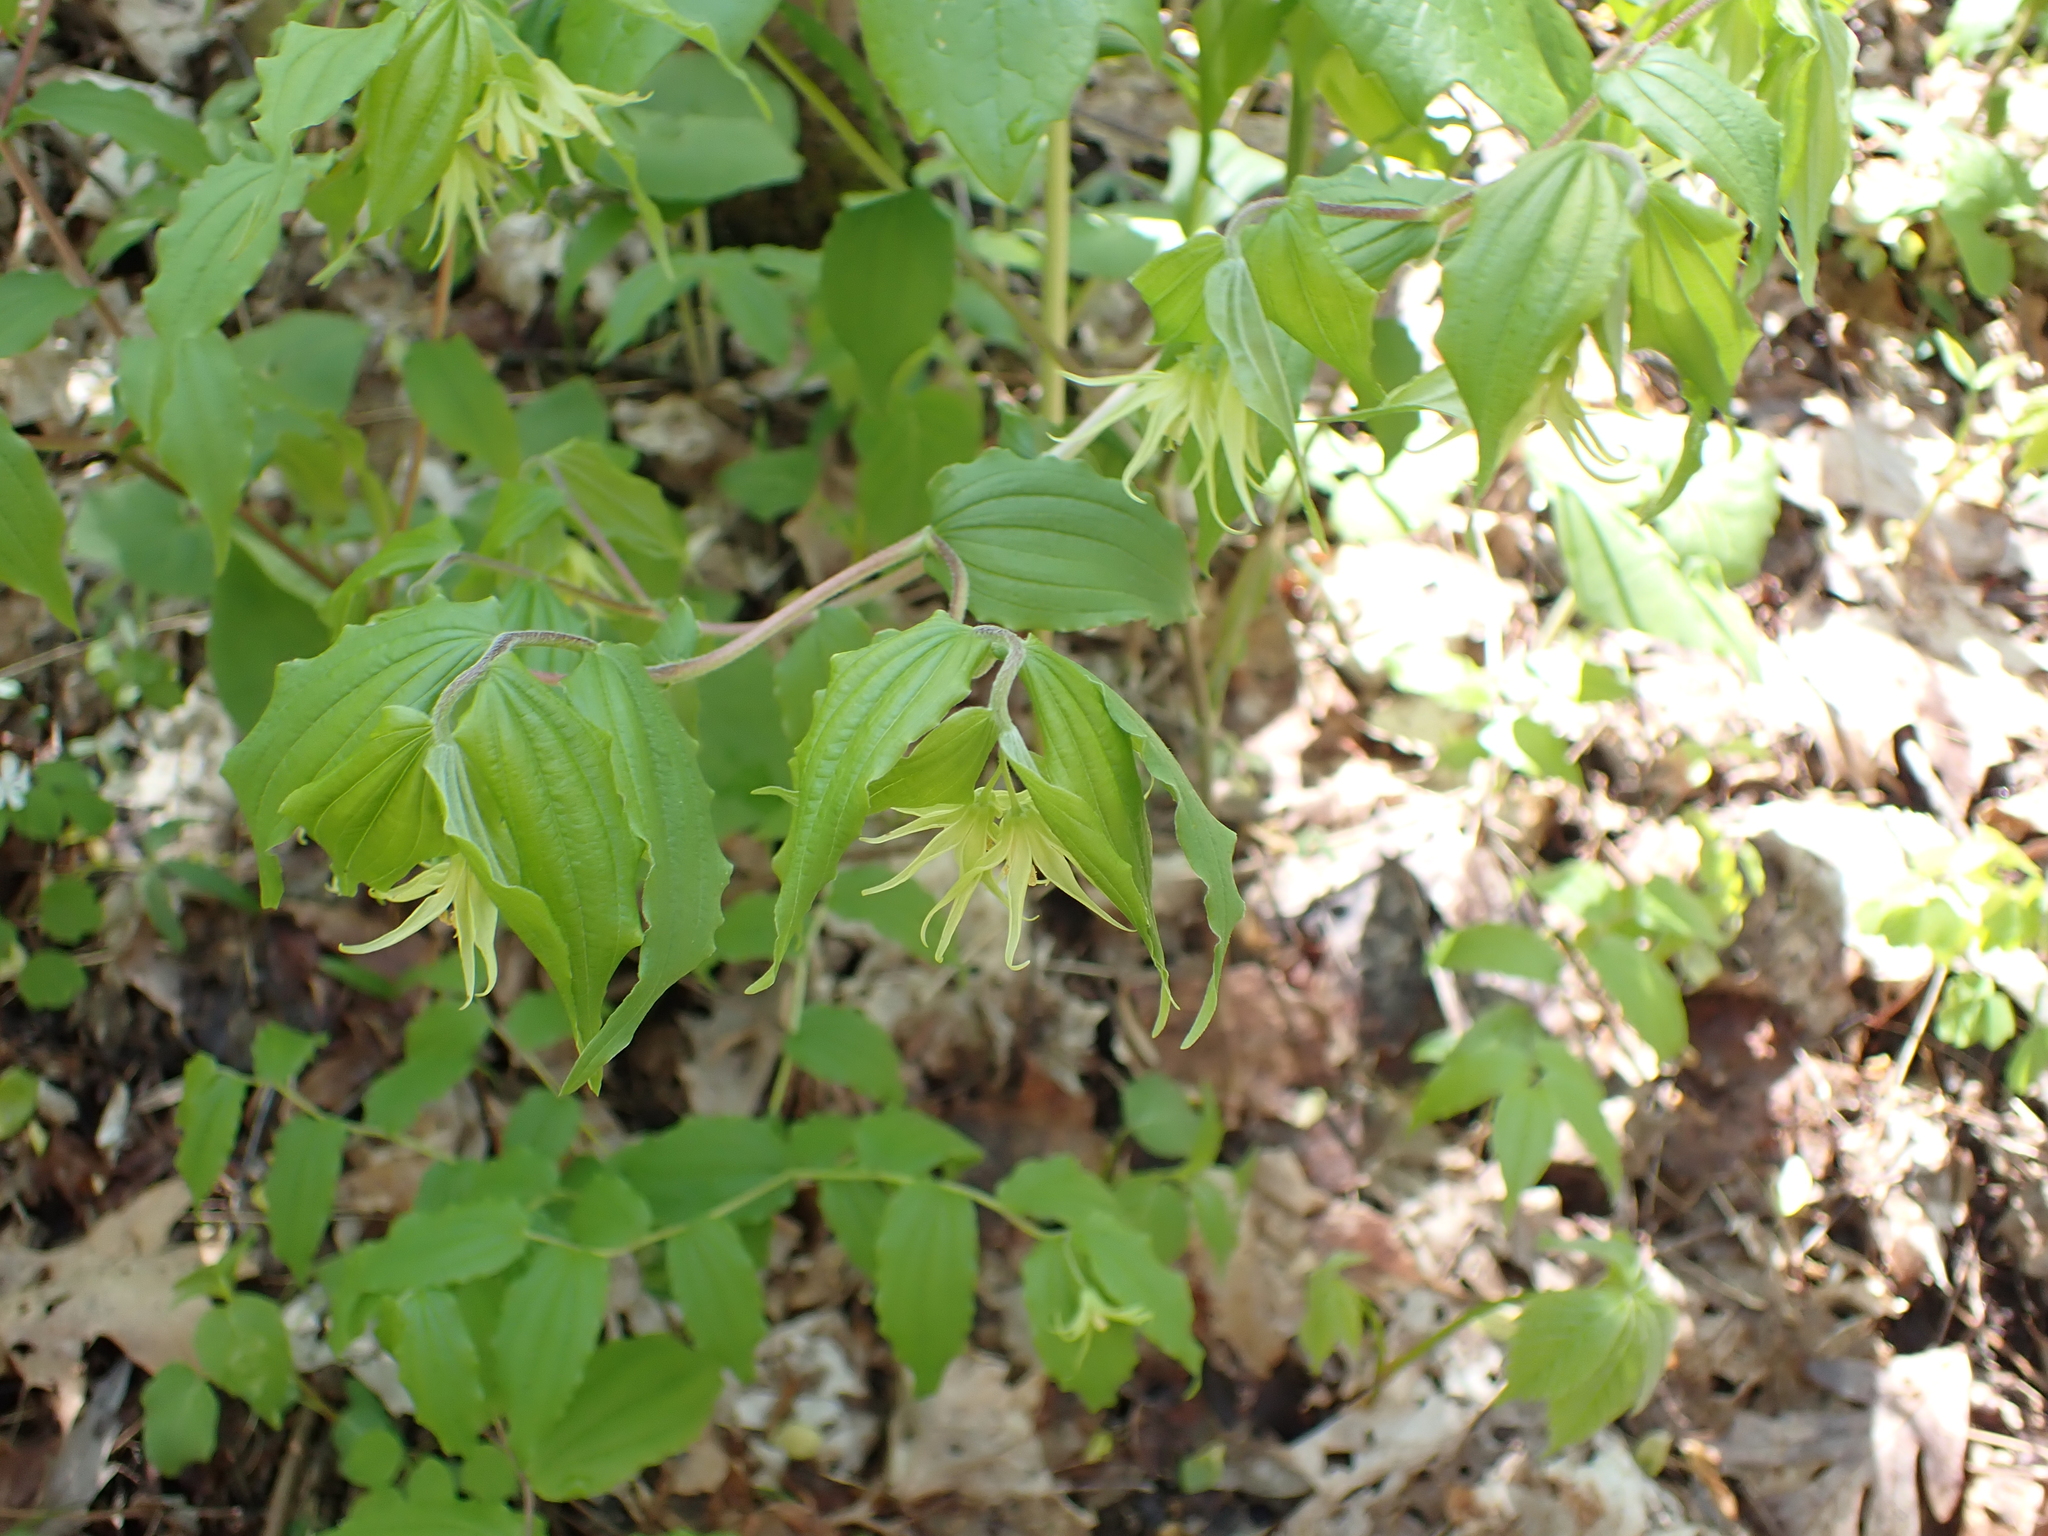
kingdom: Plantae
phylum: Tracheophyta
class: Liliopsida
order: Liliales
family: Liliaceae
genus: Prosartes
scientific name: Prosartes lanuginosa
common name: Hairy mandarin
